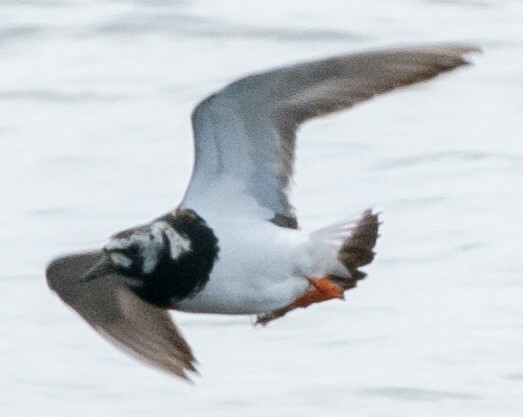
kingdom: Animalia
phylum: Chordata
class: Aves
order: Charadriiformes
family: Scolopacidae
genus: Arenaria
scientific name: Arenaria interpres
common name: Ruddy turnstone
